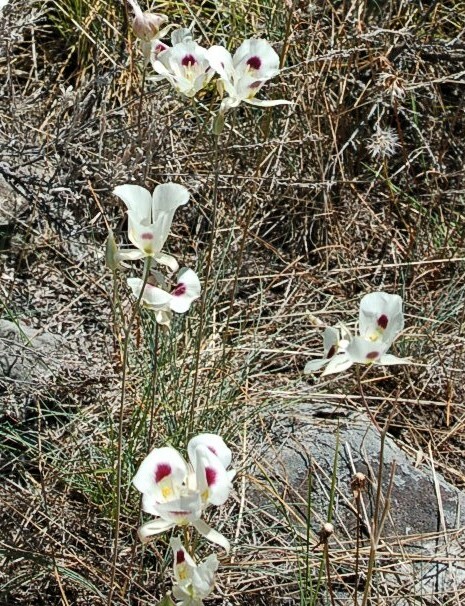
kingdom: Plantae
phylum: Tracheophyta
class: Liliopsida
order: Liliales
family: Liliaceae
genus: Calochortus
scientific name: Calochortus eurycarpus
